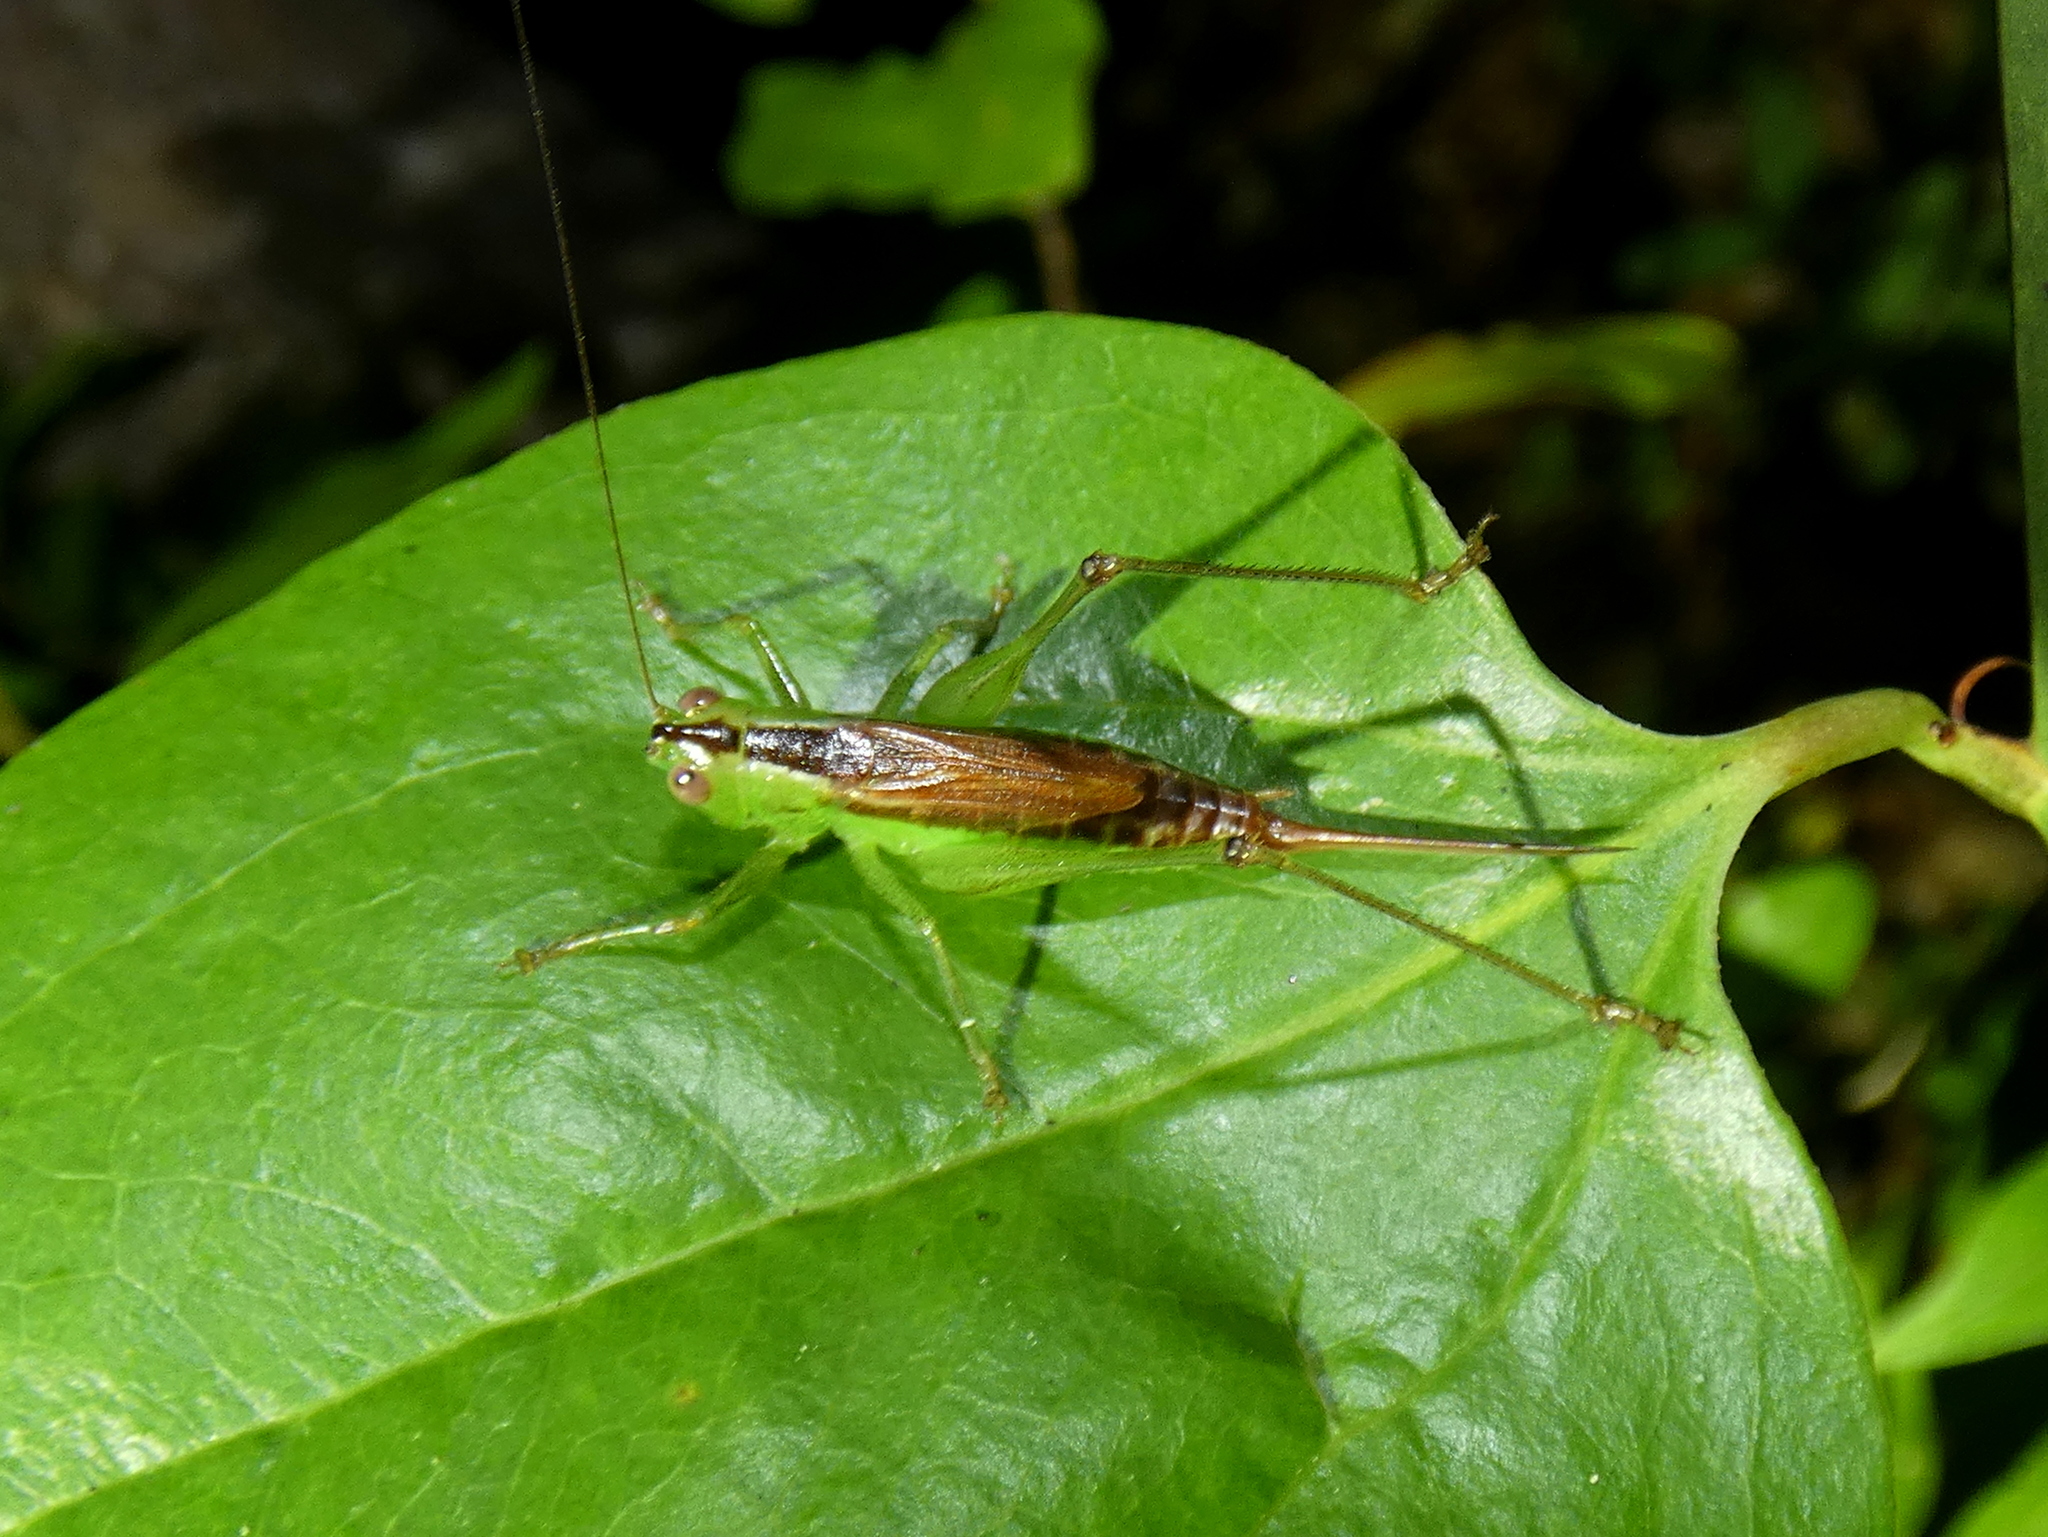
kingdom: Animalia
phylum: Arthropoda
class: Insecta
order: Orthoptera
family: Tettigoniidae
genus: Conocephalus
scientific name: Conocephalus brevipennis
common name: Short-winged meadow katydid
